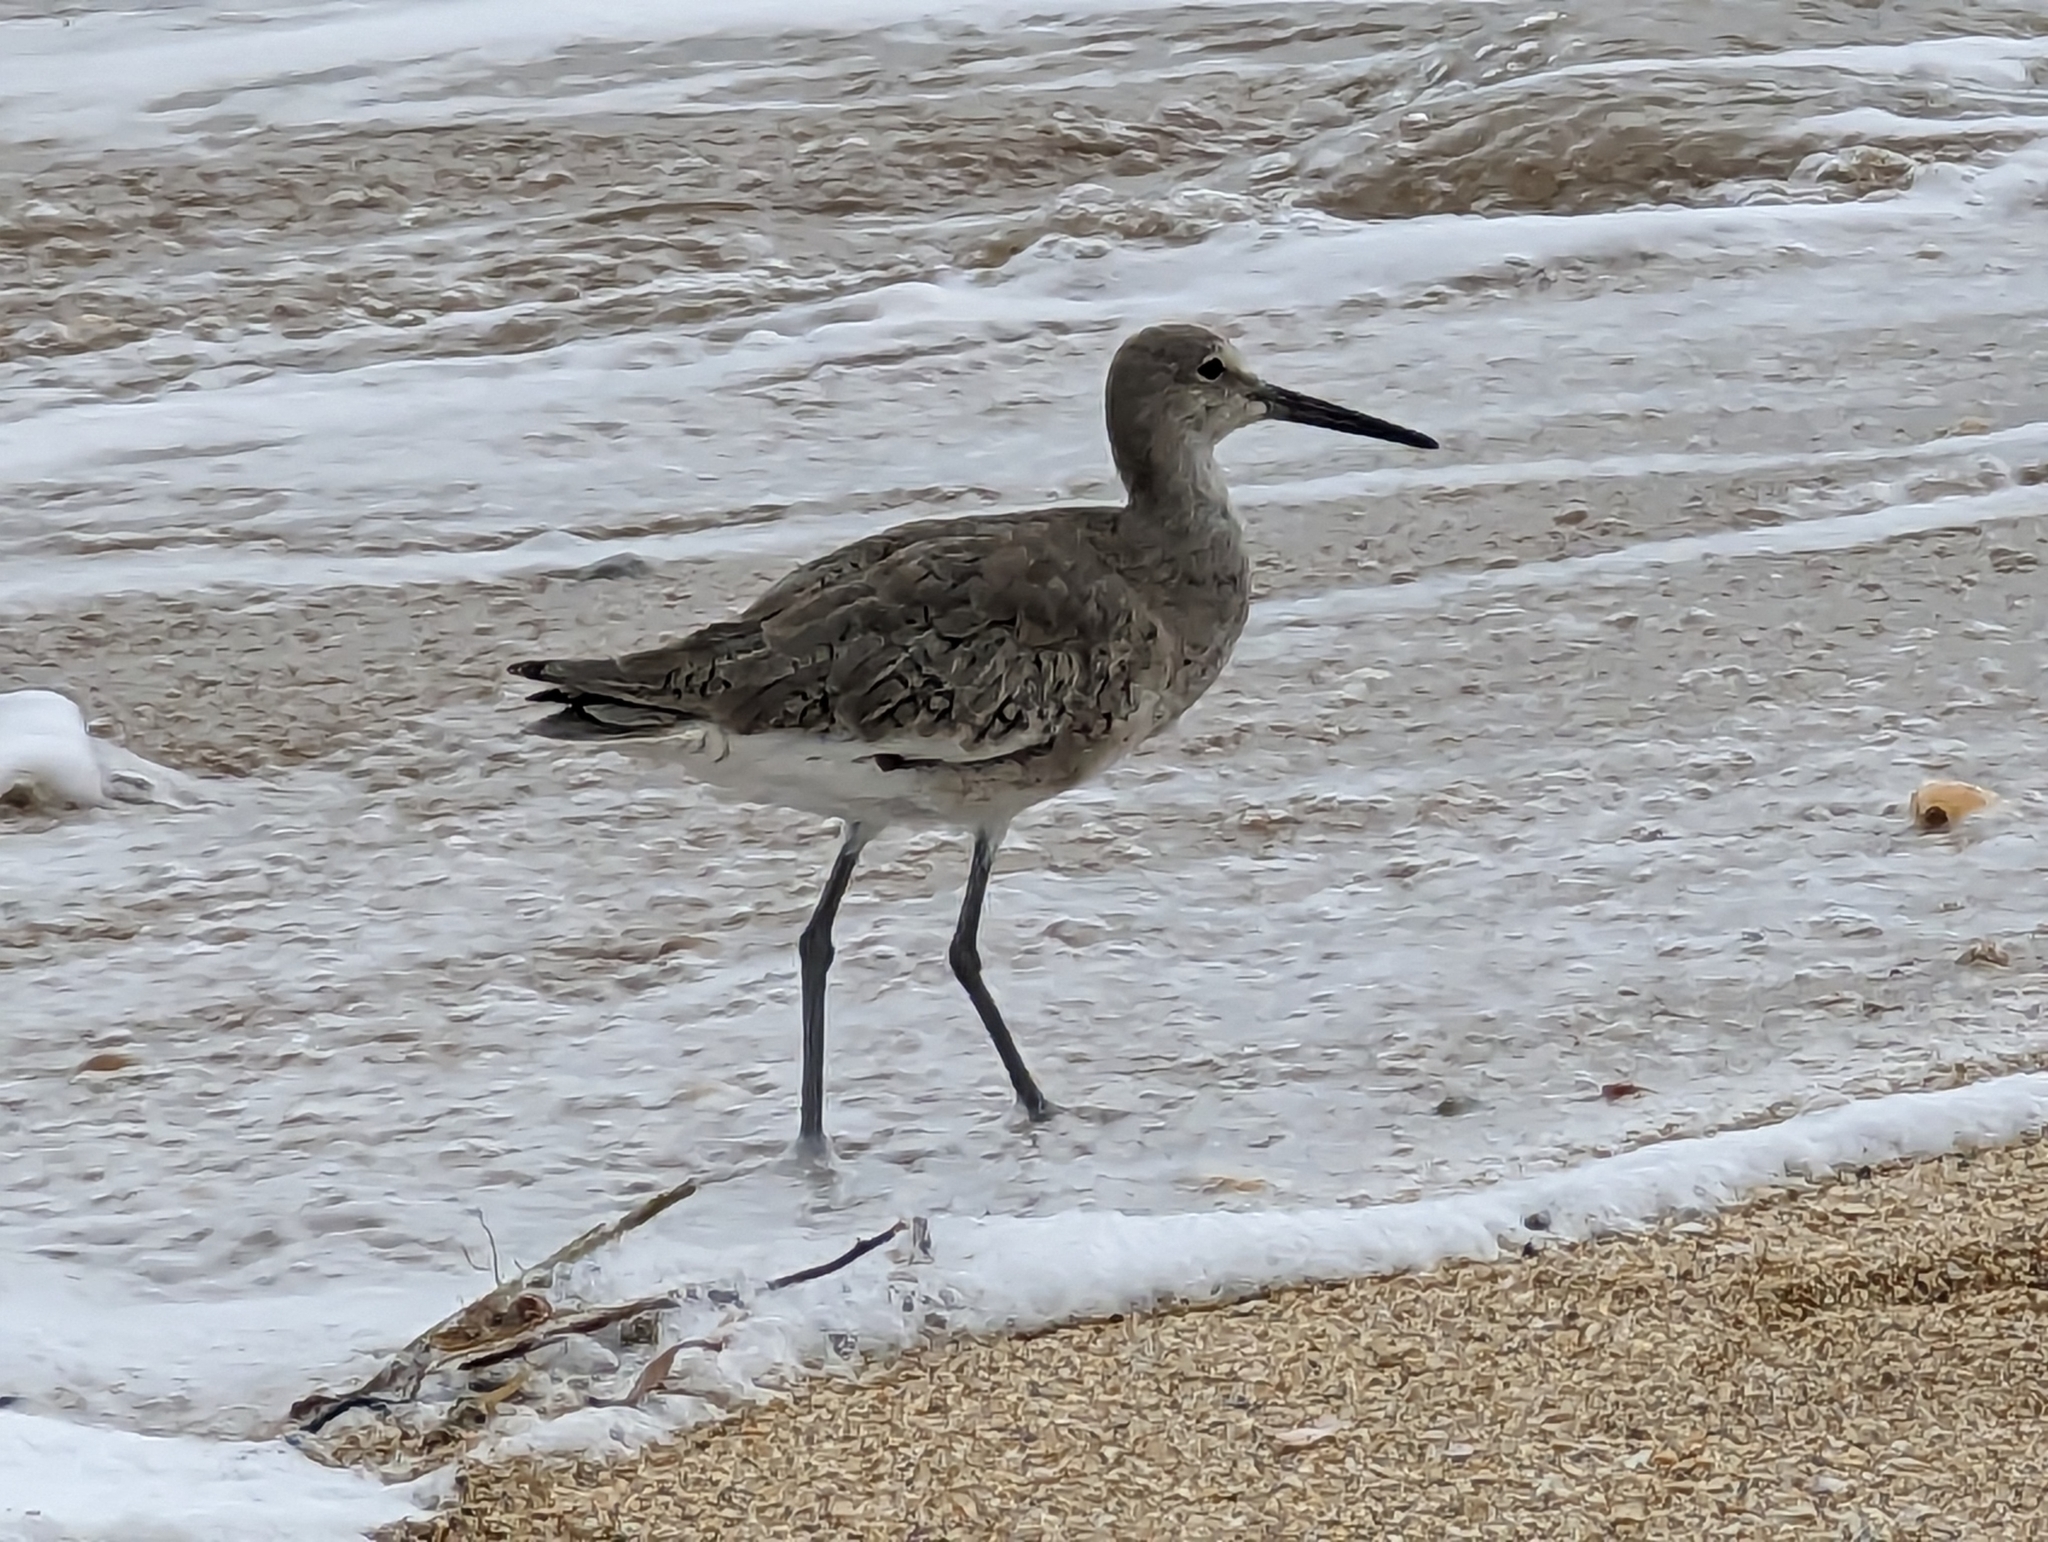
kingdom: Animalia
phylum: Chordata
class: Aves
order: Charadriiformes
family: Scolopacidae
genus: Tringa
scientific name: Tringa semipalmata
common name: Willet
